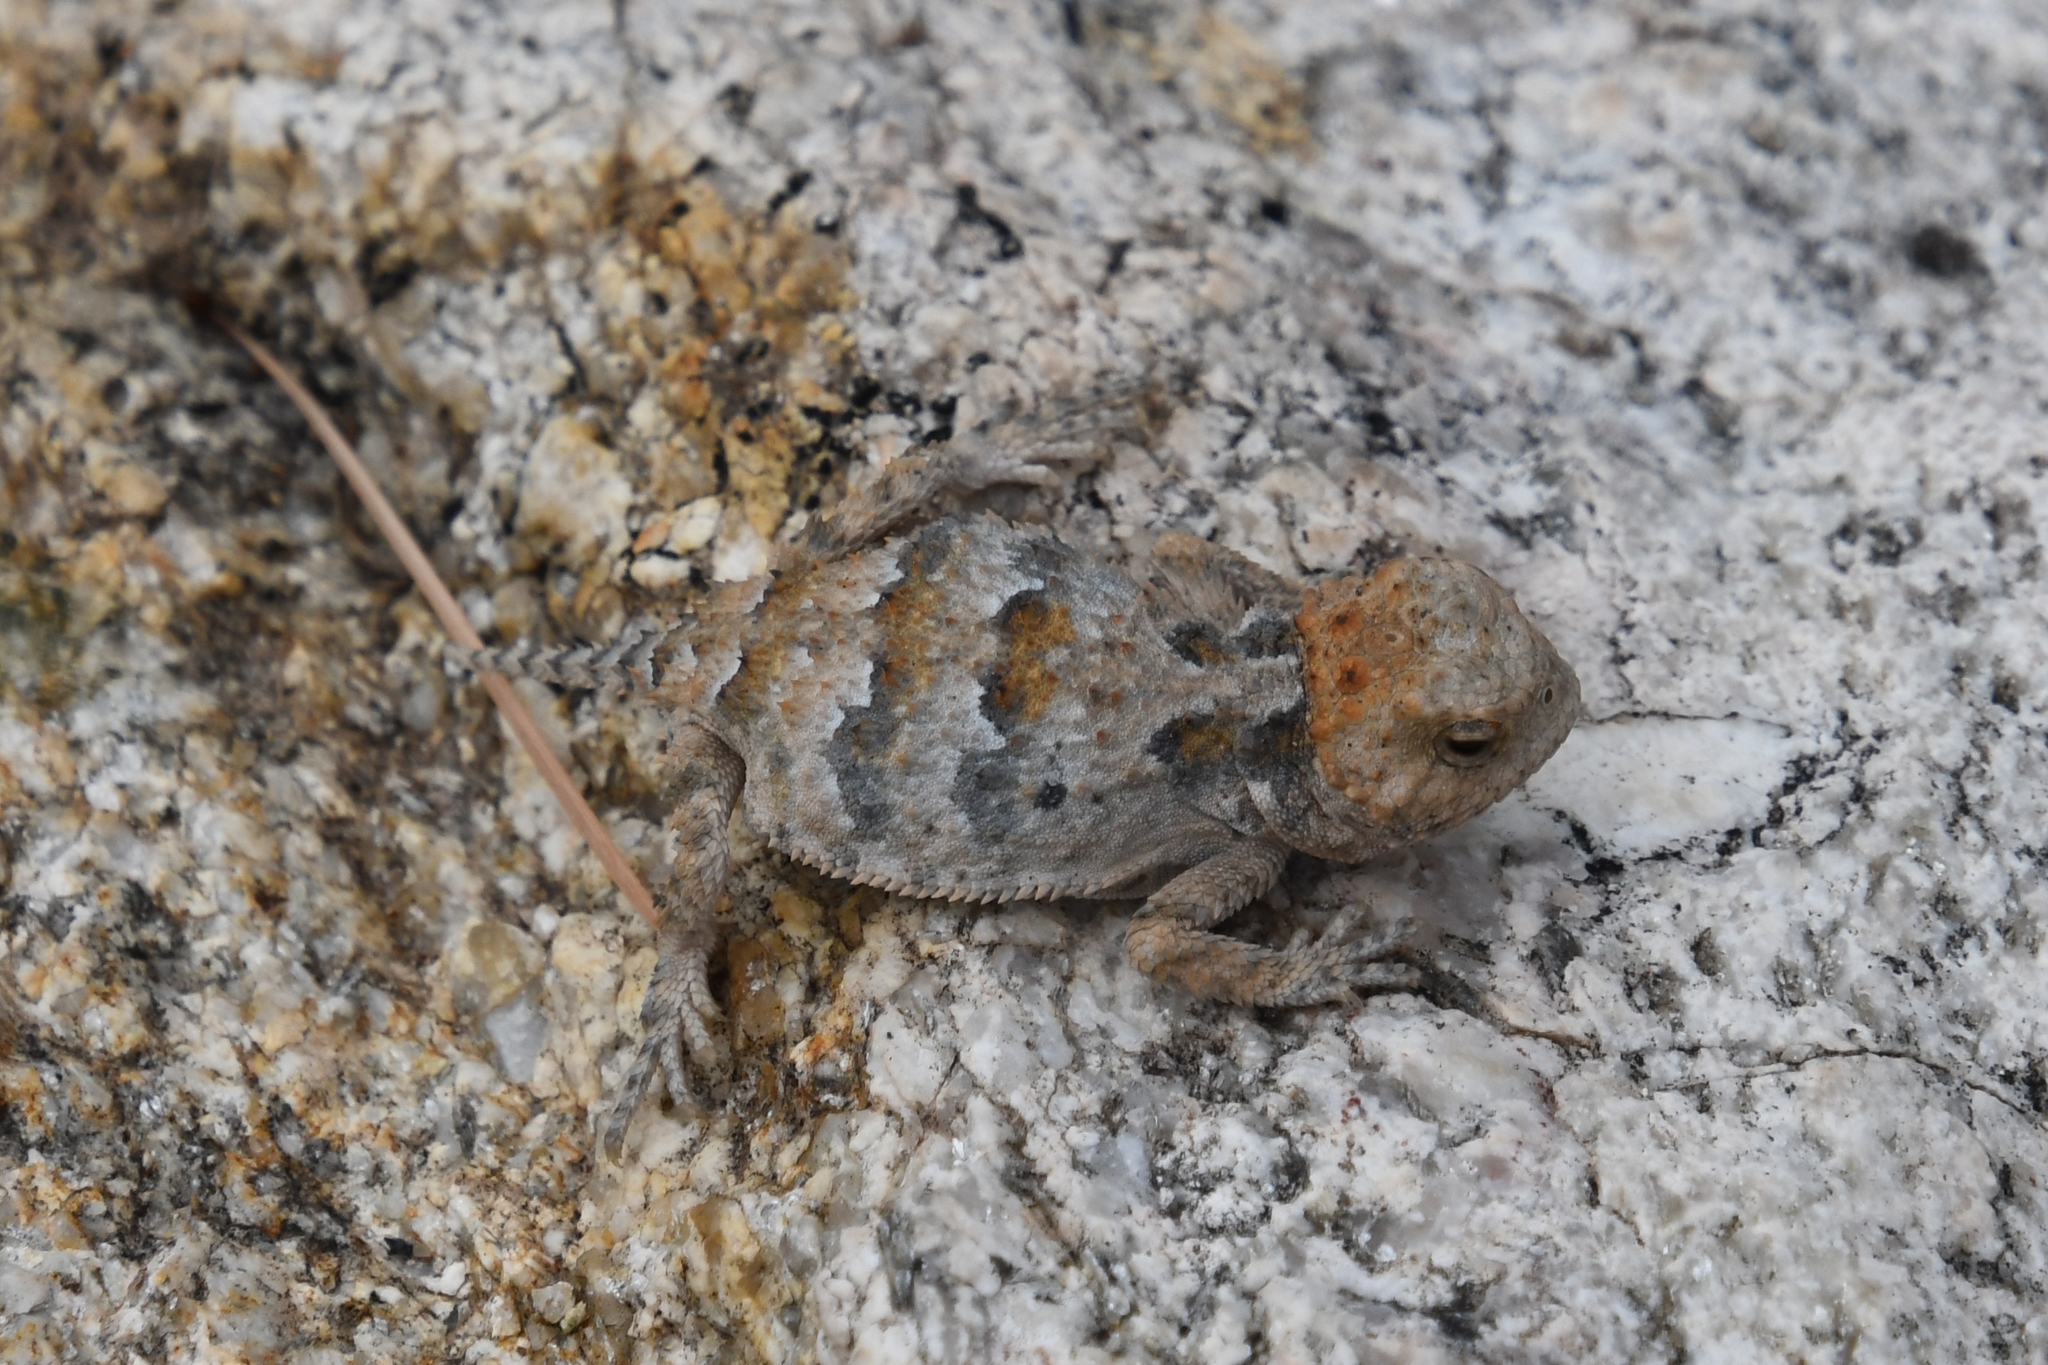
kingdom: Animalia
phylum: Chordata
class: Squamata
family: Phrynosomatidae
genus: Phrynosoma
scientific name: Phrynosoma hernandesi
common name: Greater short-horned lizard
